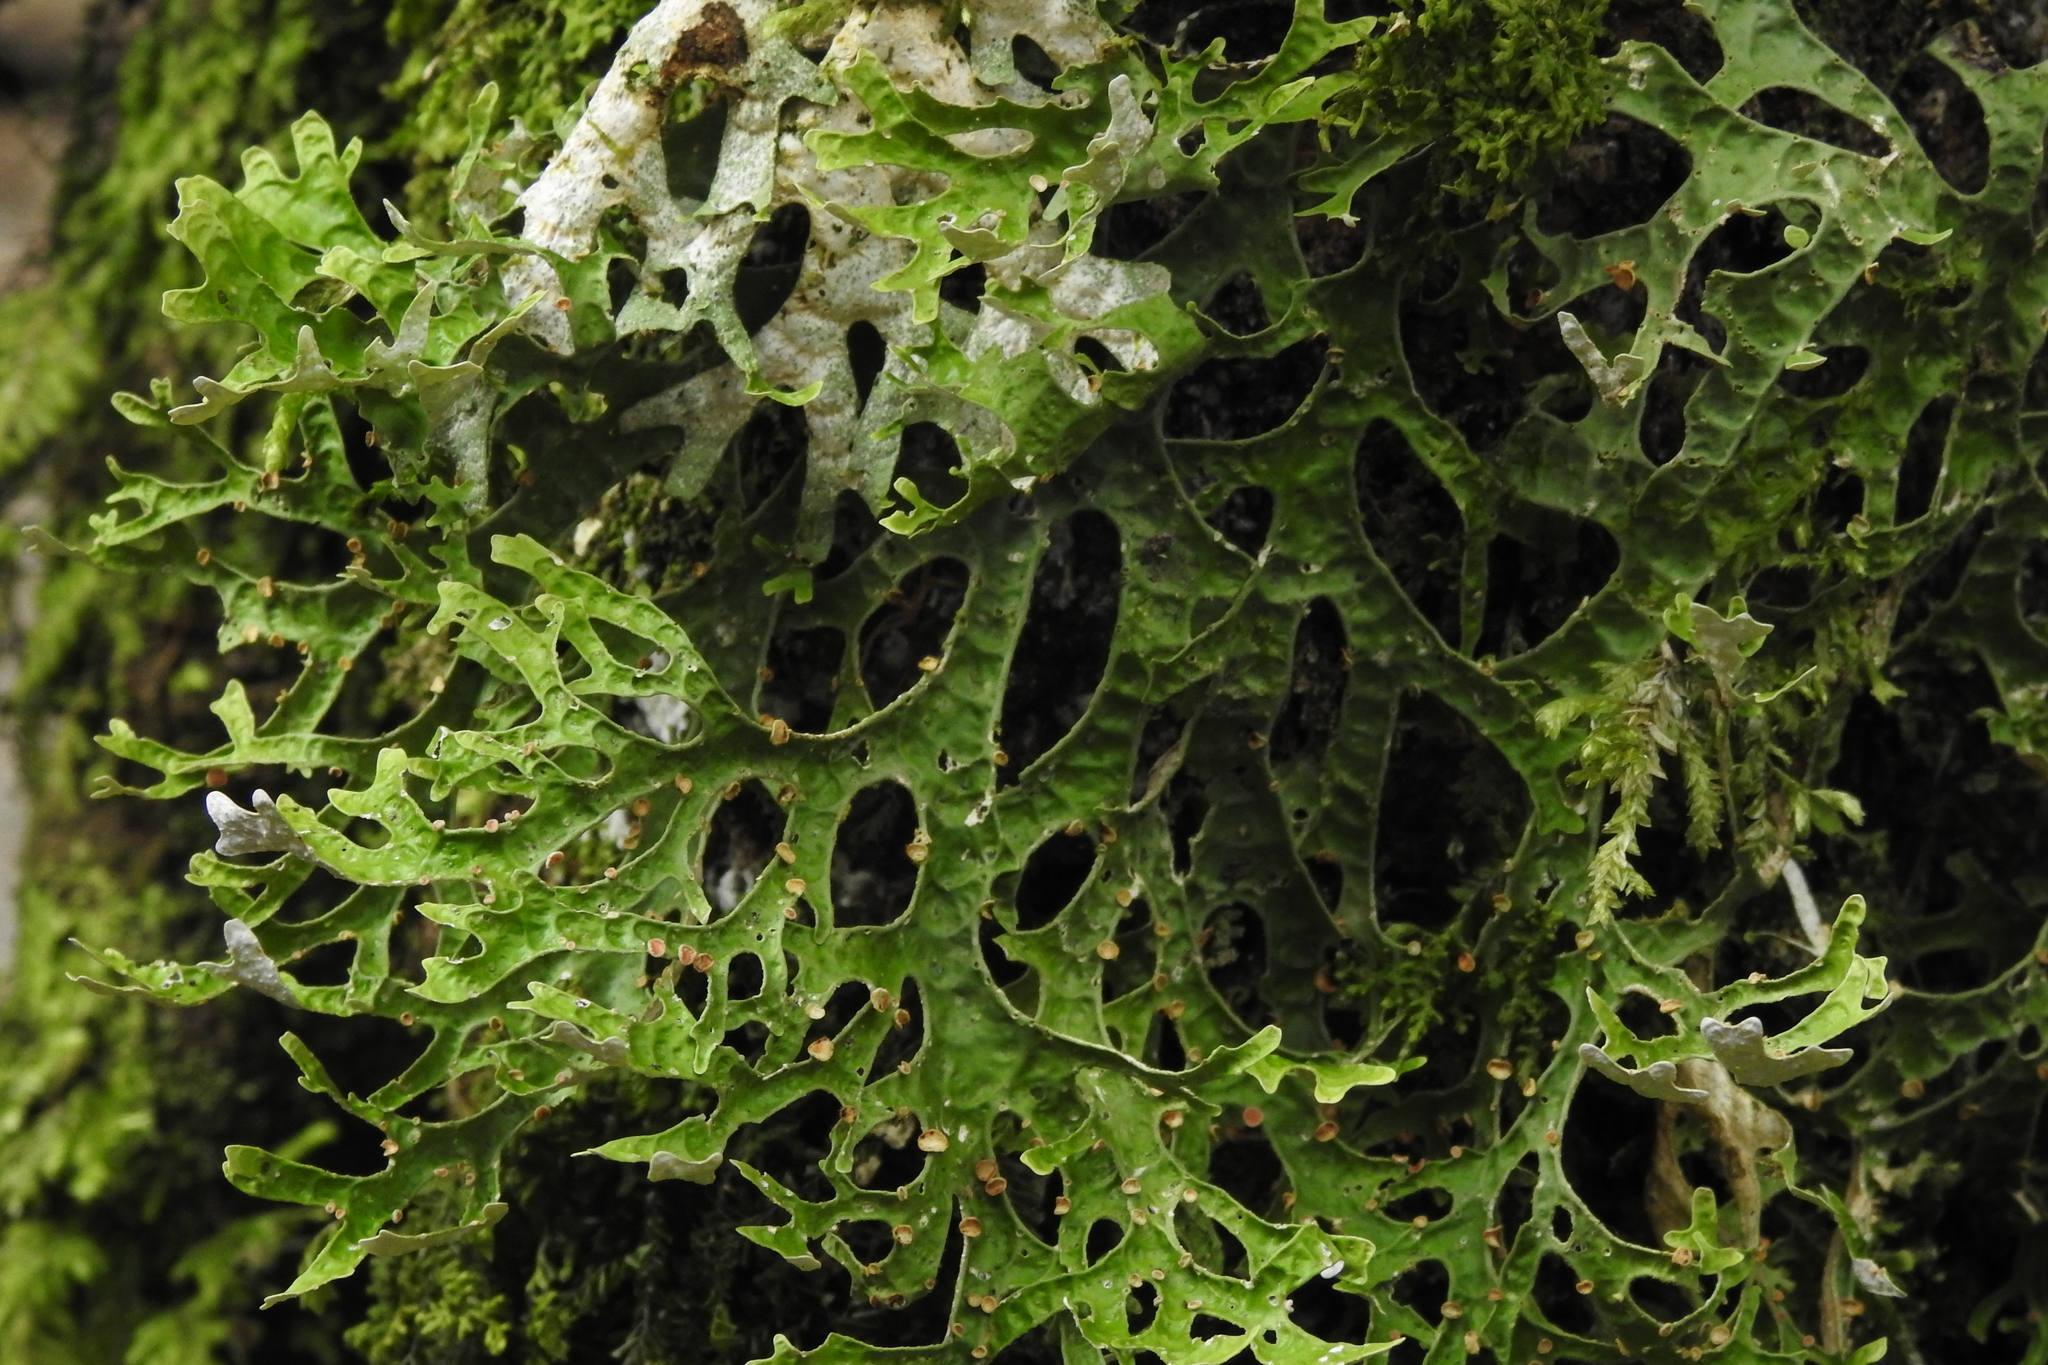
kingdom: Fungi
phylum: Ascomycota
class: Lecanoromycetes
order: Peltigerales
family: Lobariaceae
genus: Pseudocyphellaria
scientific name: Pseudocyphellaria rufovirescens
